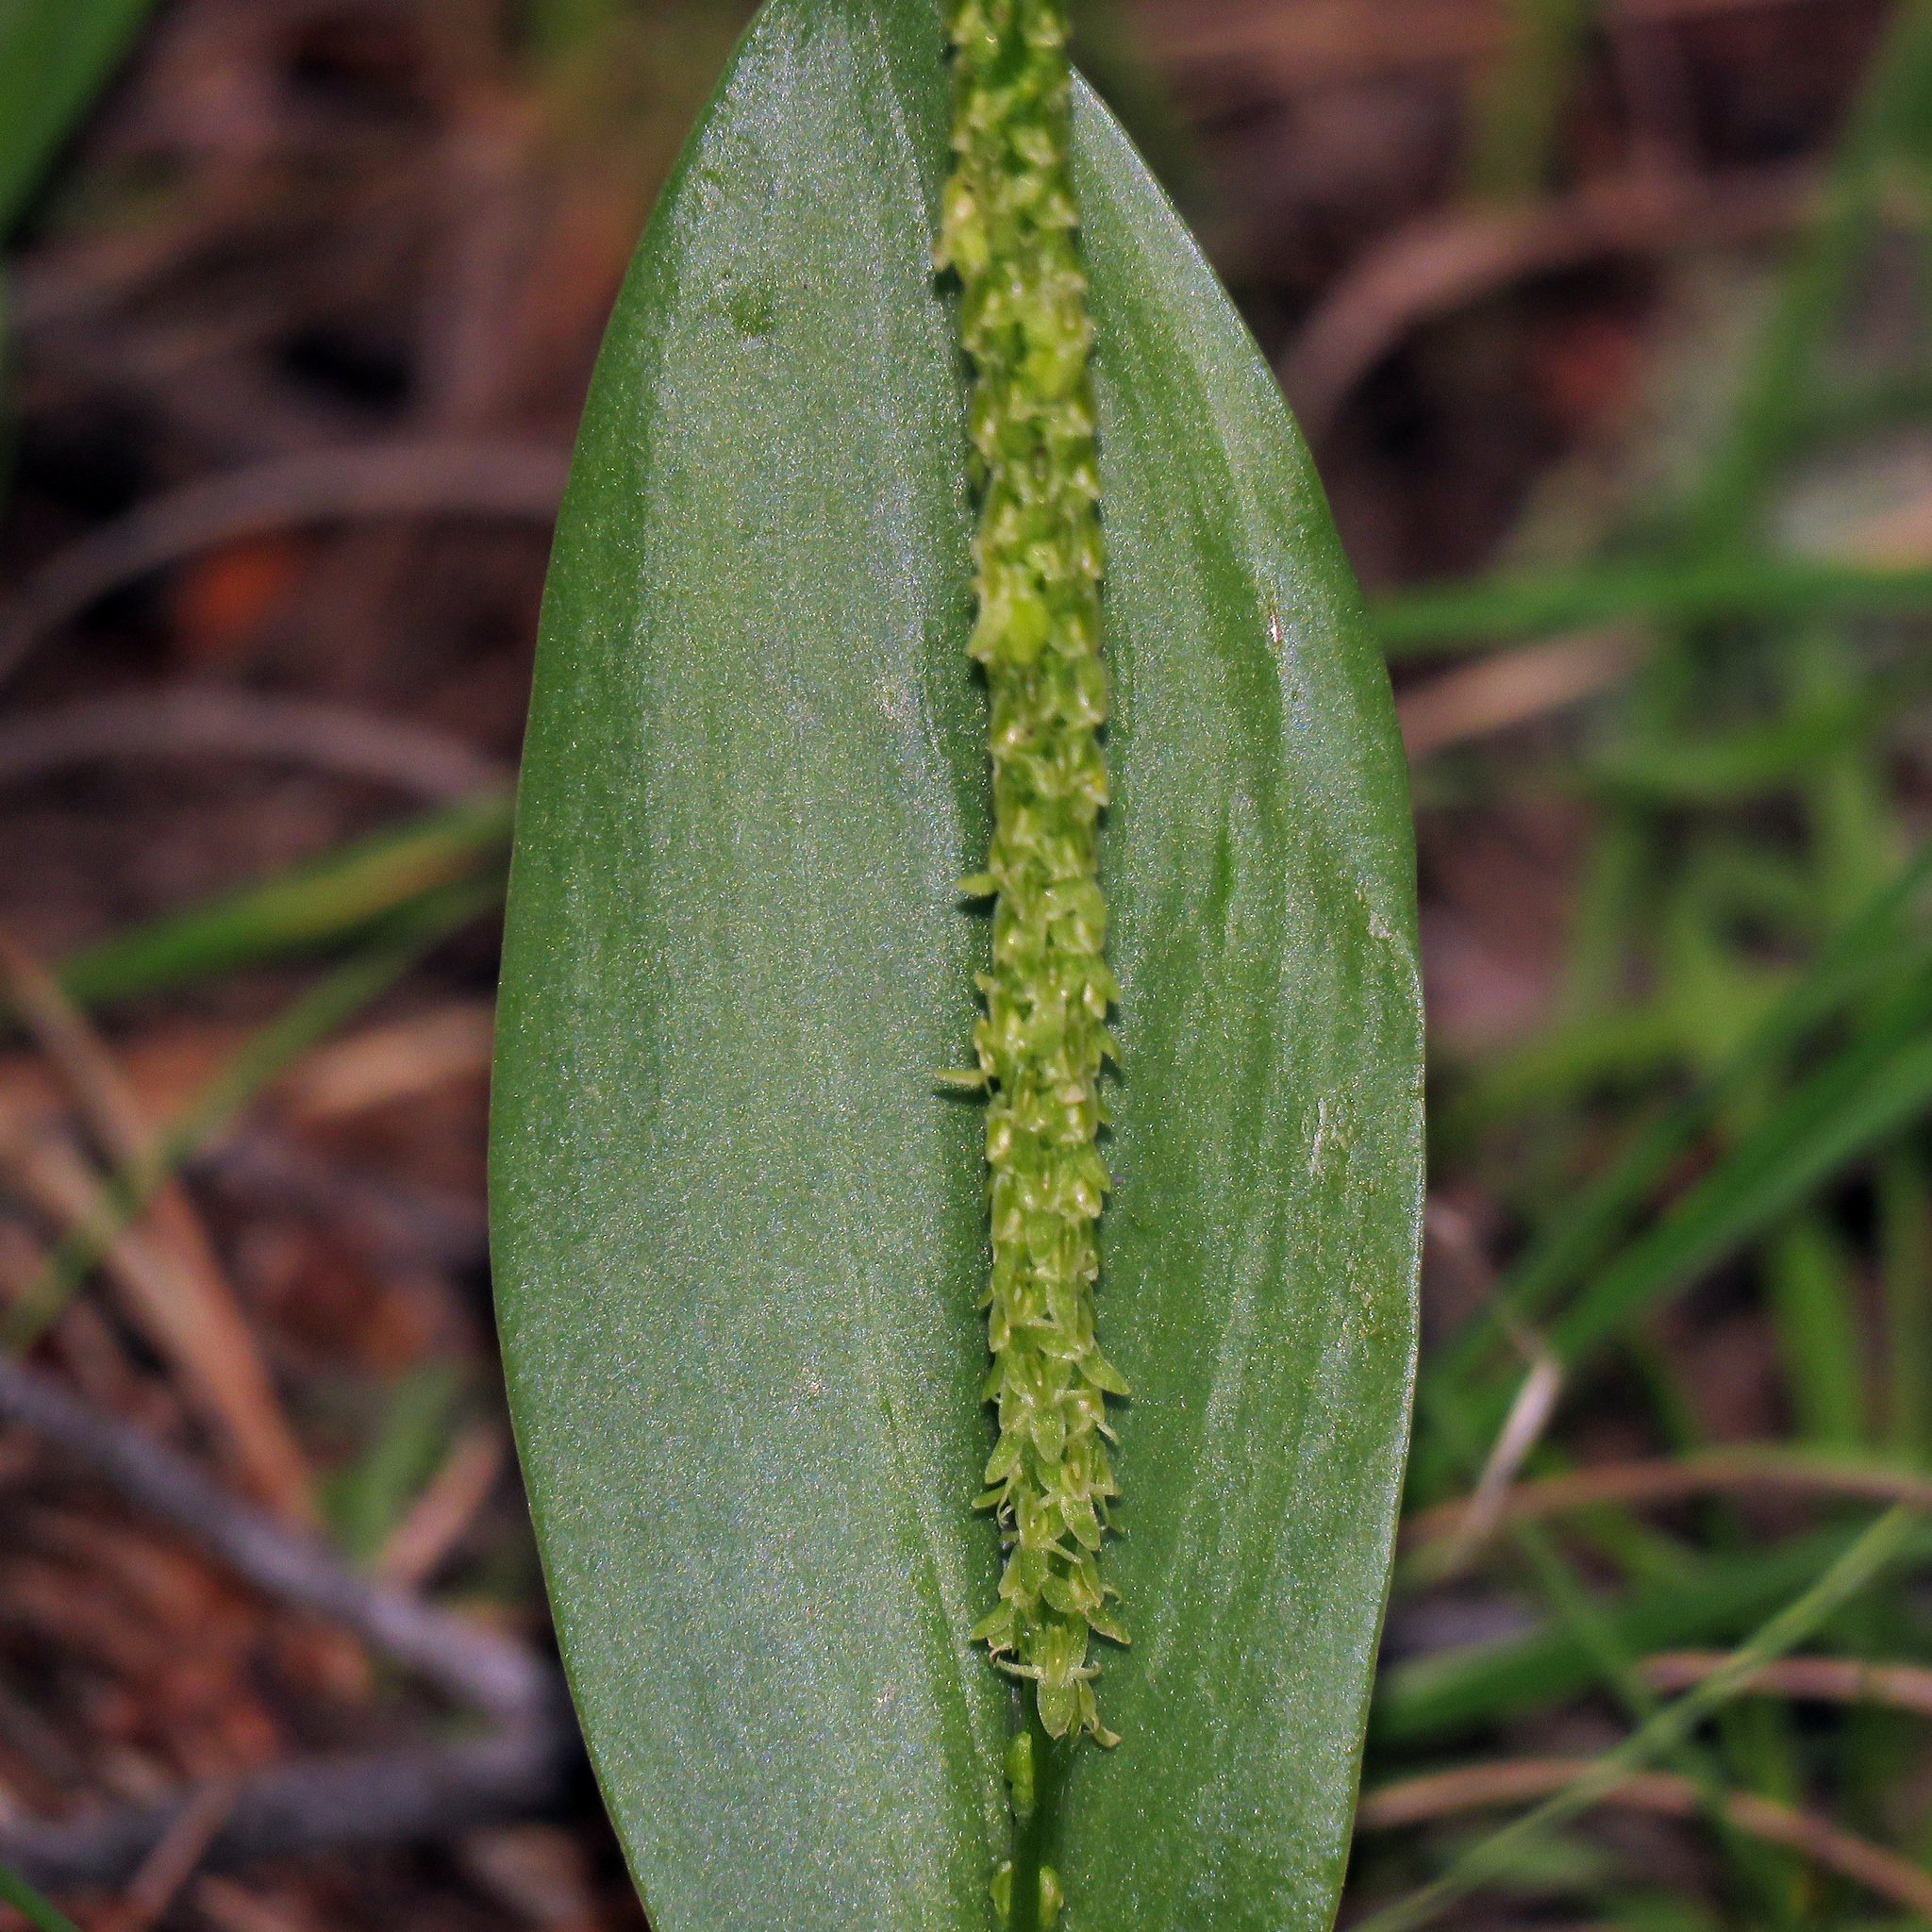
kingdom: Plantae
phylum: Tracheophyta
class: Liliopsida
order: Asparagales
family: Orchidaceae
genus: Malaxis
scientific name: Malaxis macrostachya
